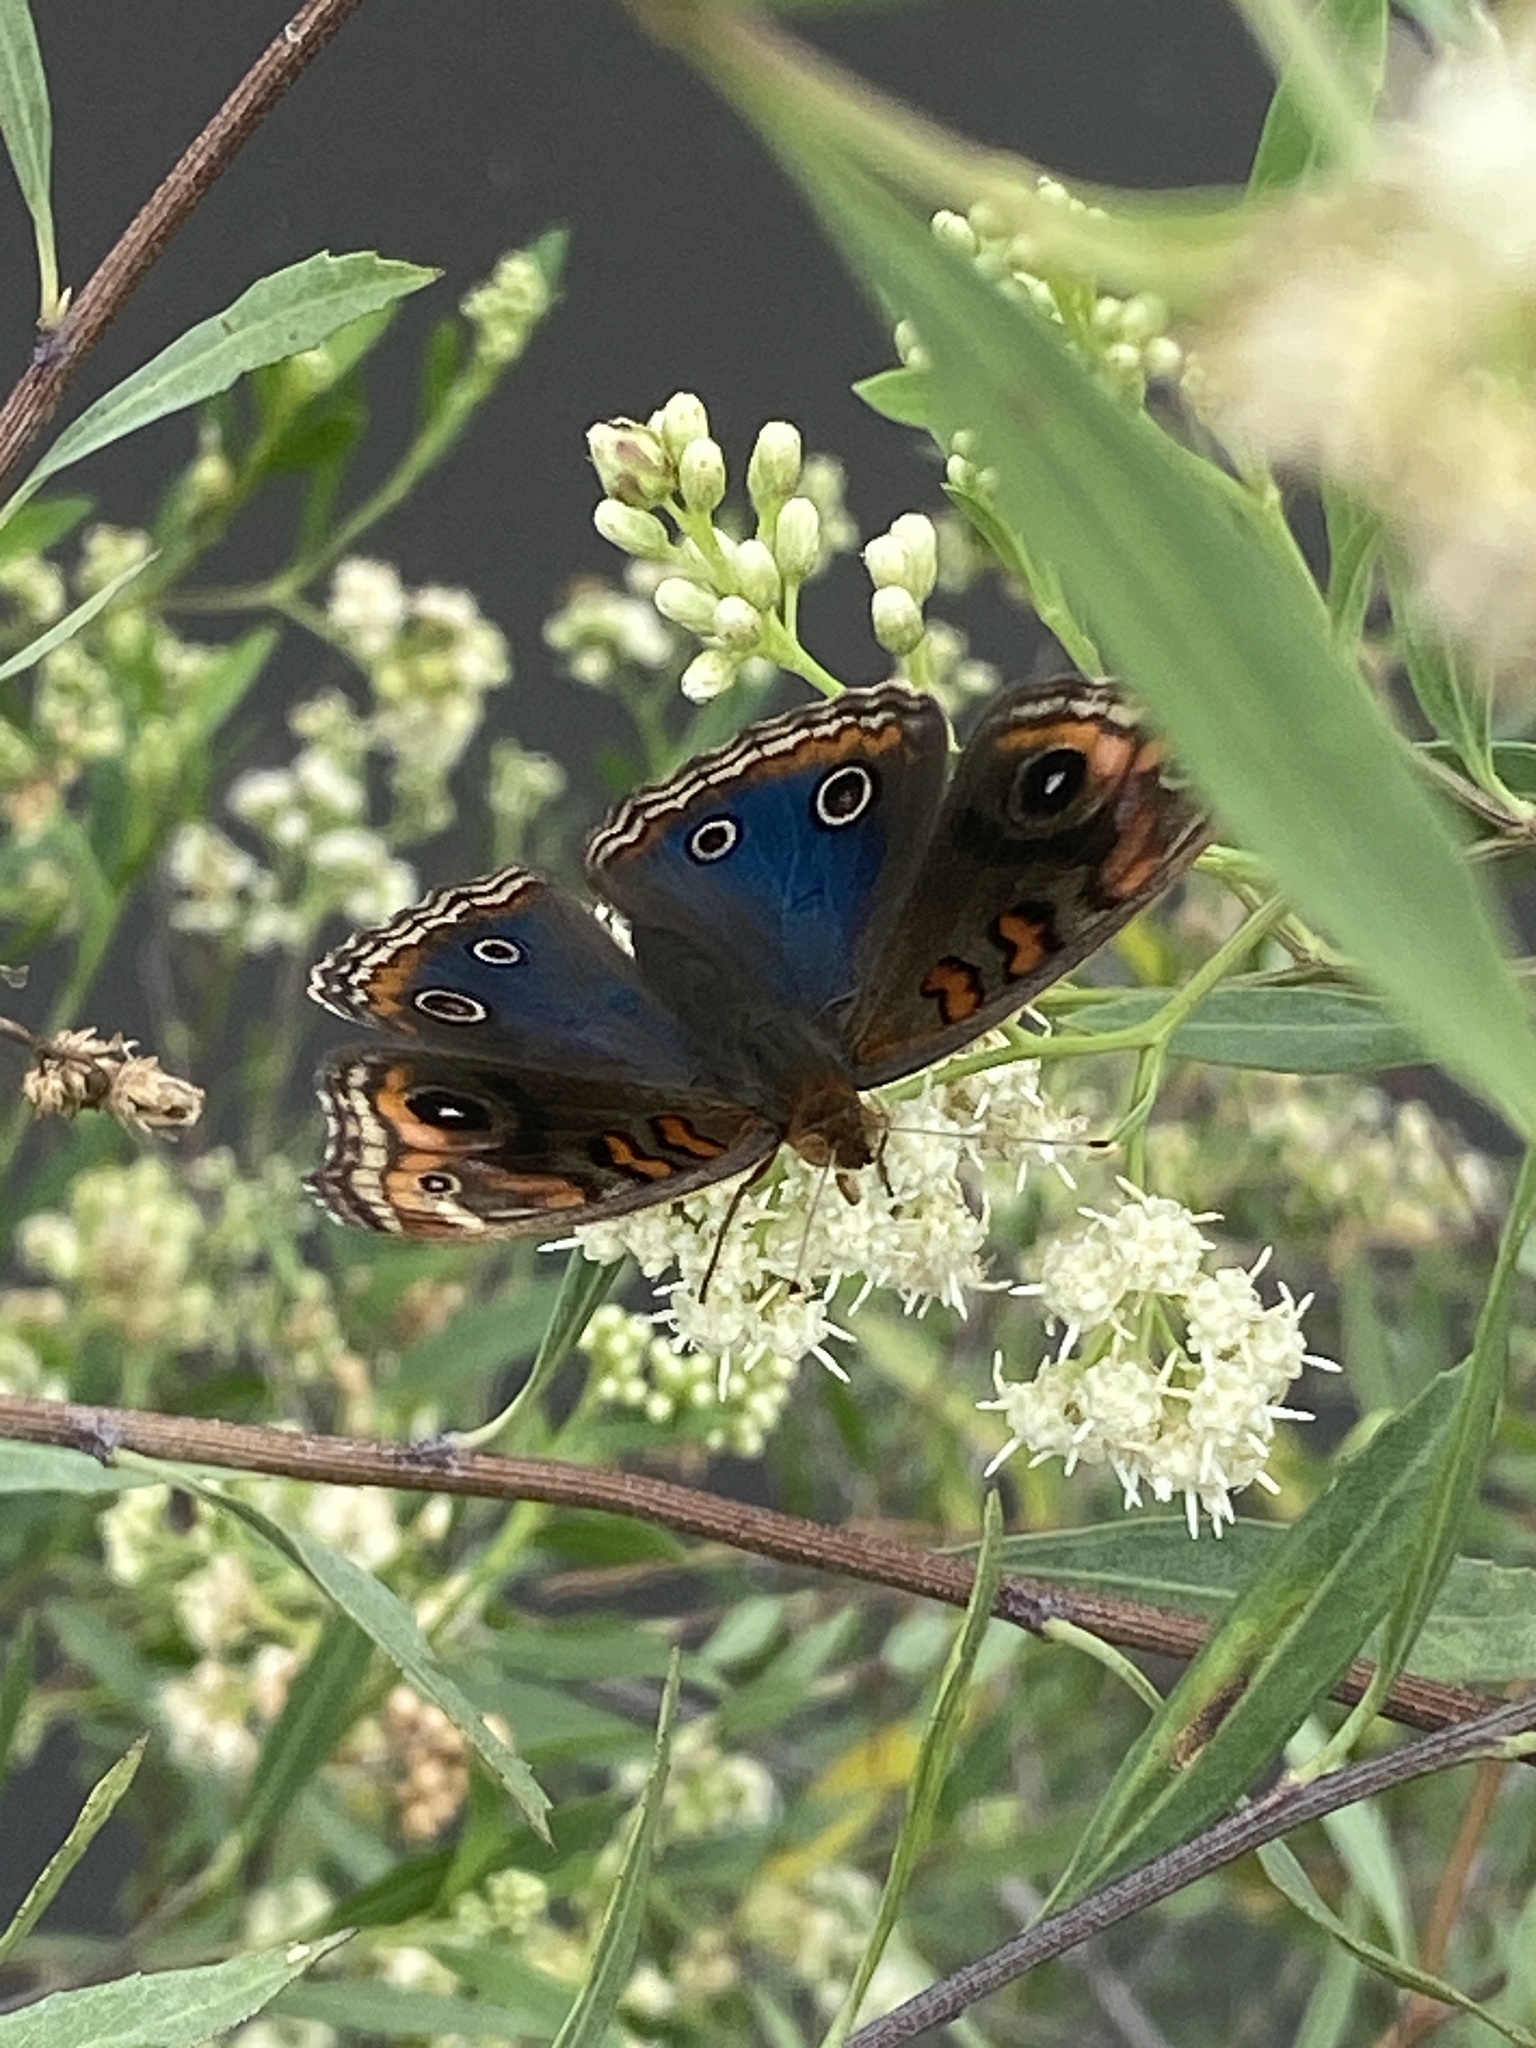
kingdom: Animalia
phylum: Arthropoda
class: Insecta
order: Lepidoptera
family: Nymphalidae
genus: Junonia
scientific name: Junonia lavinia
